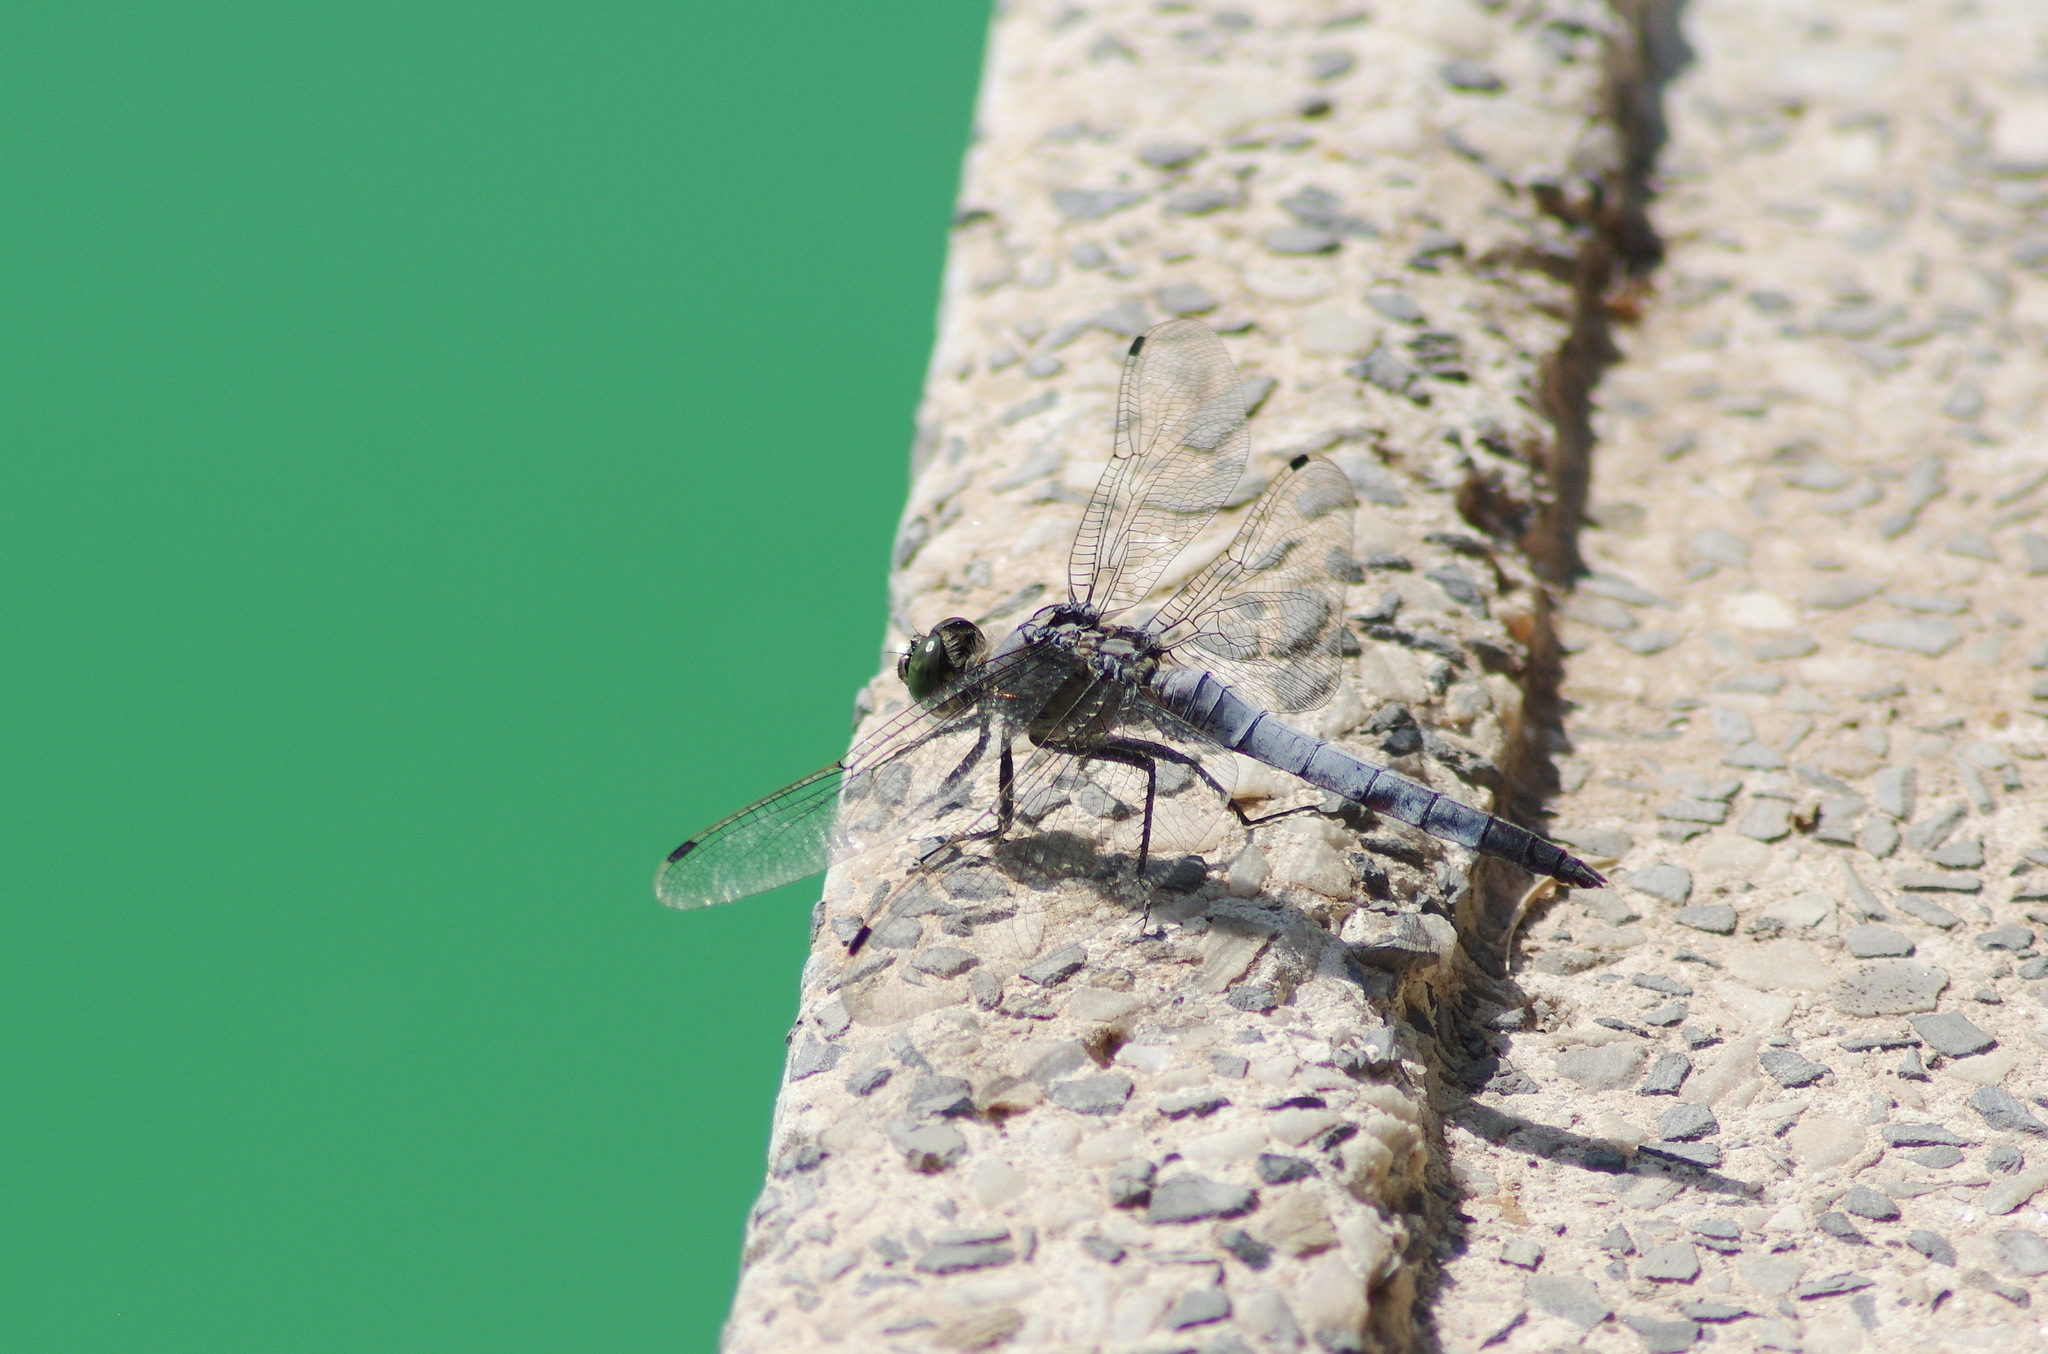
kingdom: Animalia
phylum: Arthropoda
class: Insecta
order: Odonata
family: Libellulidae
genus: Orthetrum
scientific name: Orthetrum cancellatum
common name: Black-tailed skimmer
